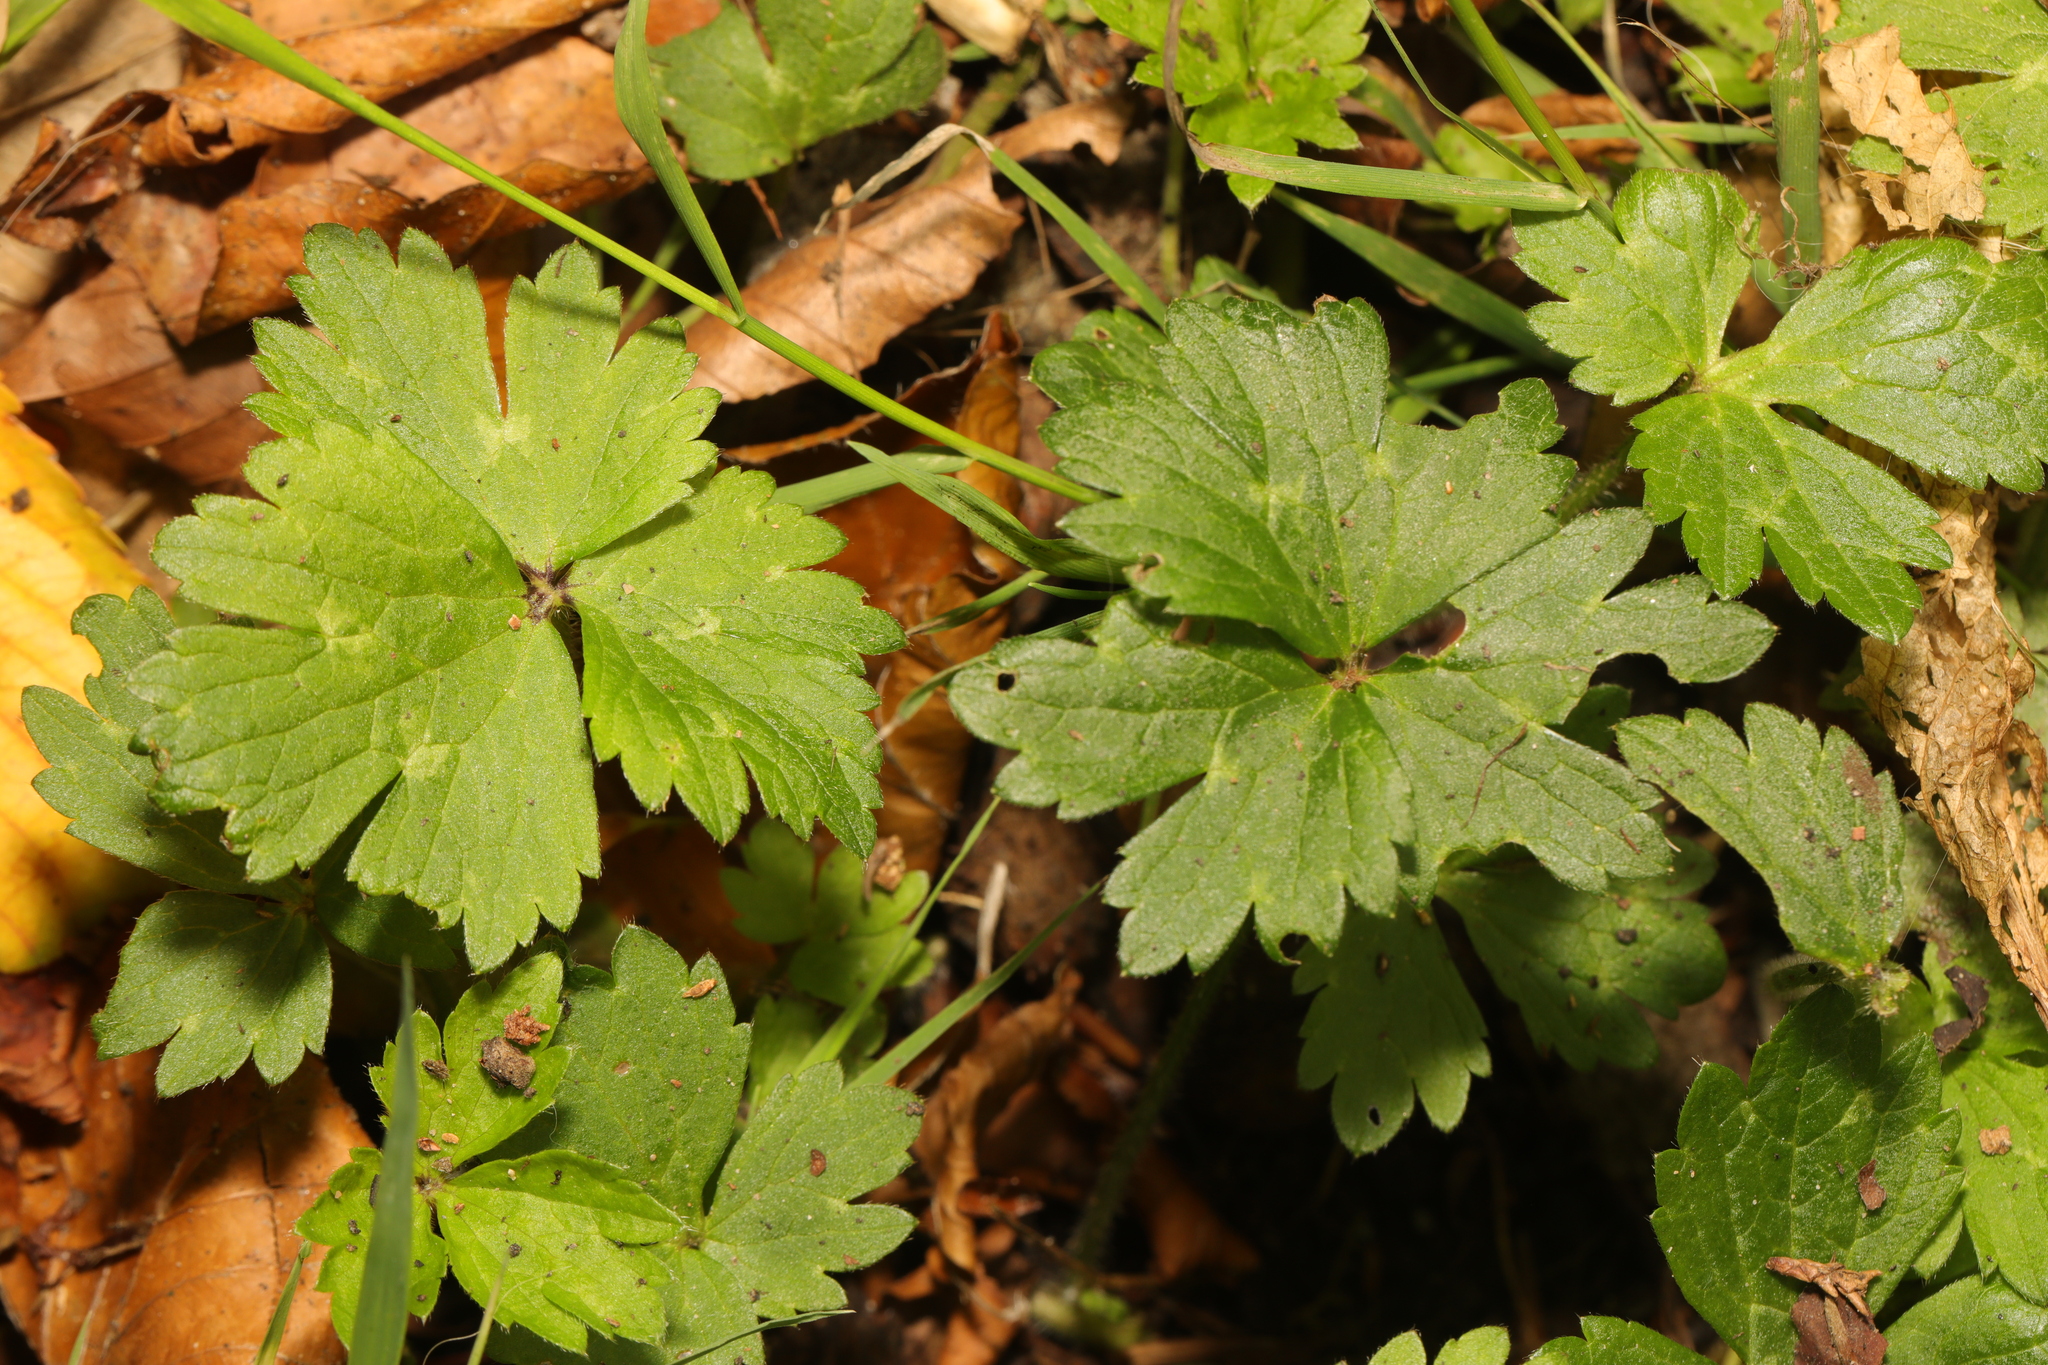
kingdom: Plantae
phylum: Tracheophyta
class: Magnoliopsida
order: Ranunculales
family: Ranunculaceae
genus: Ranunculus
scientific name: Ranunculus repens
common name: Creeping buttercup
